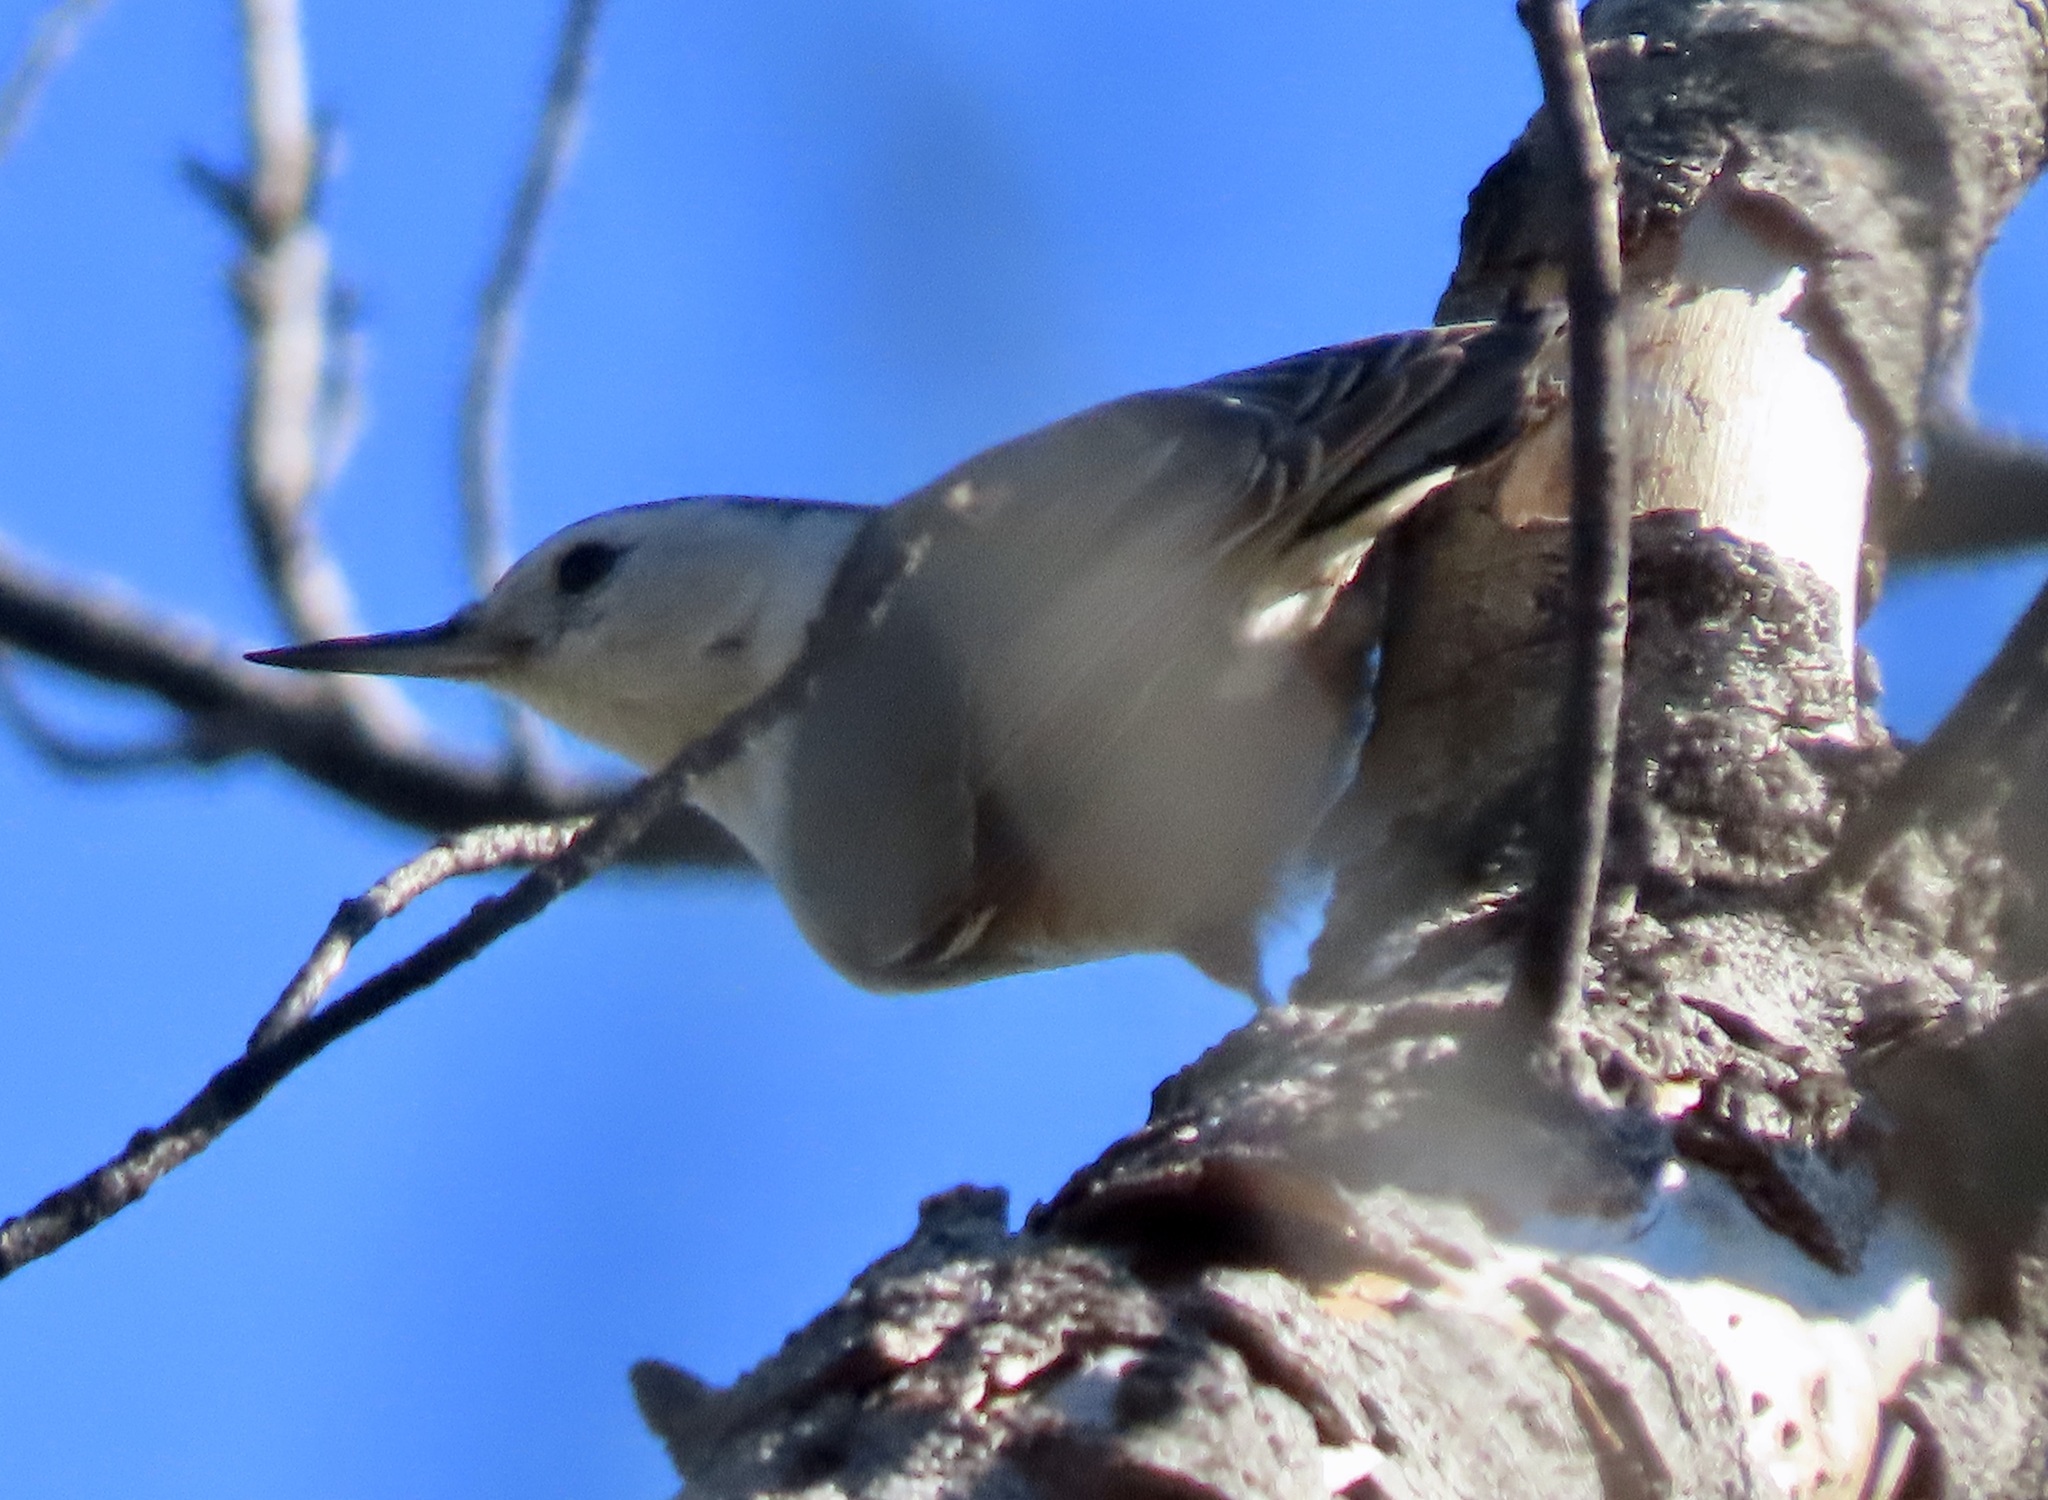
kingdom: Animalia
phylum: Chordata
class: Aves
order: Passeriformes
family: Sittidae
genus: Sitta
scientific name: Sitta carolinensis
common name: White-breasted nuthatch
